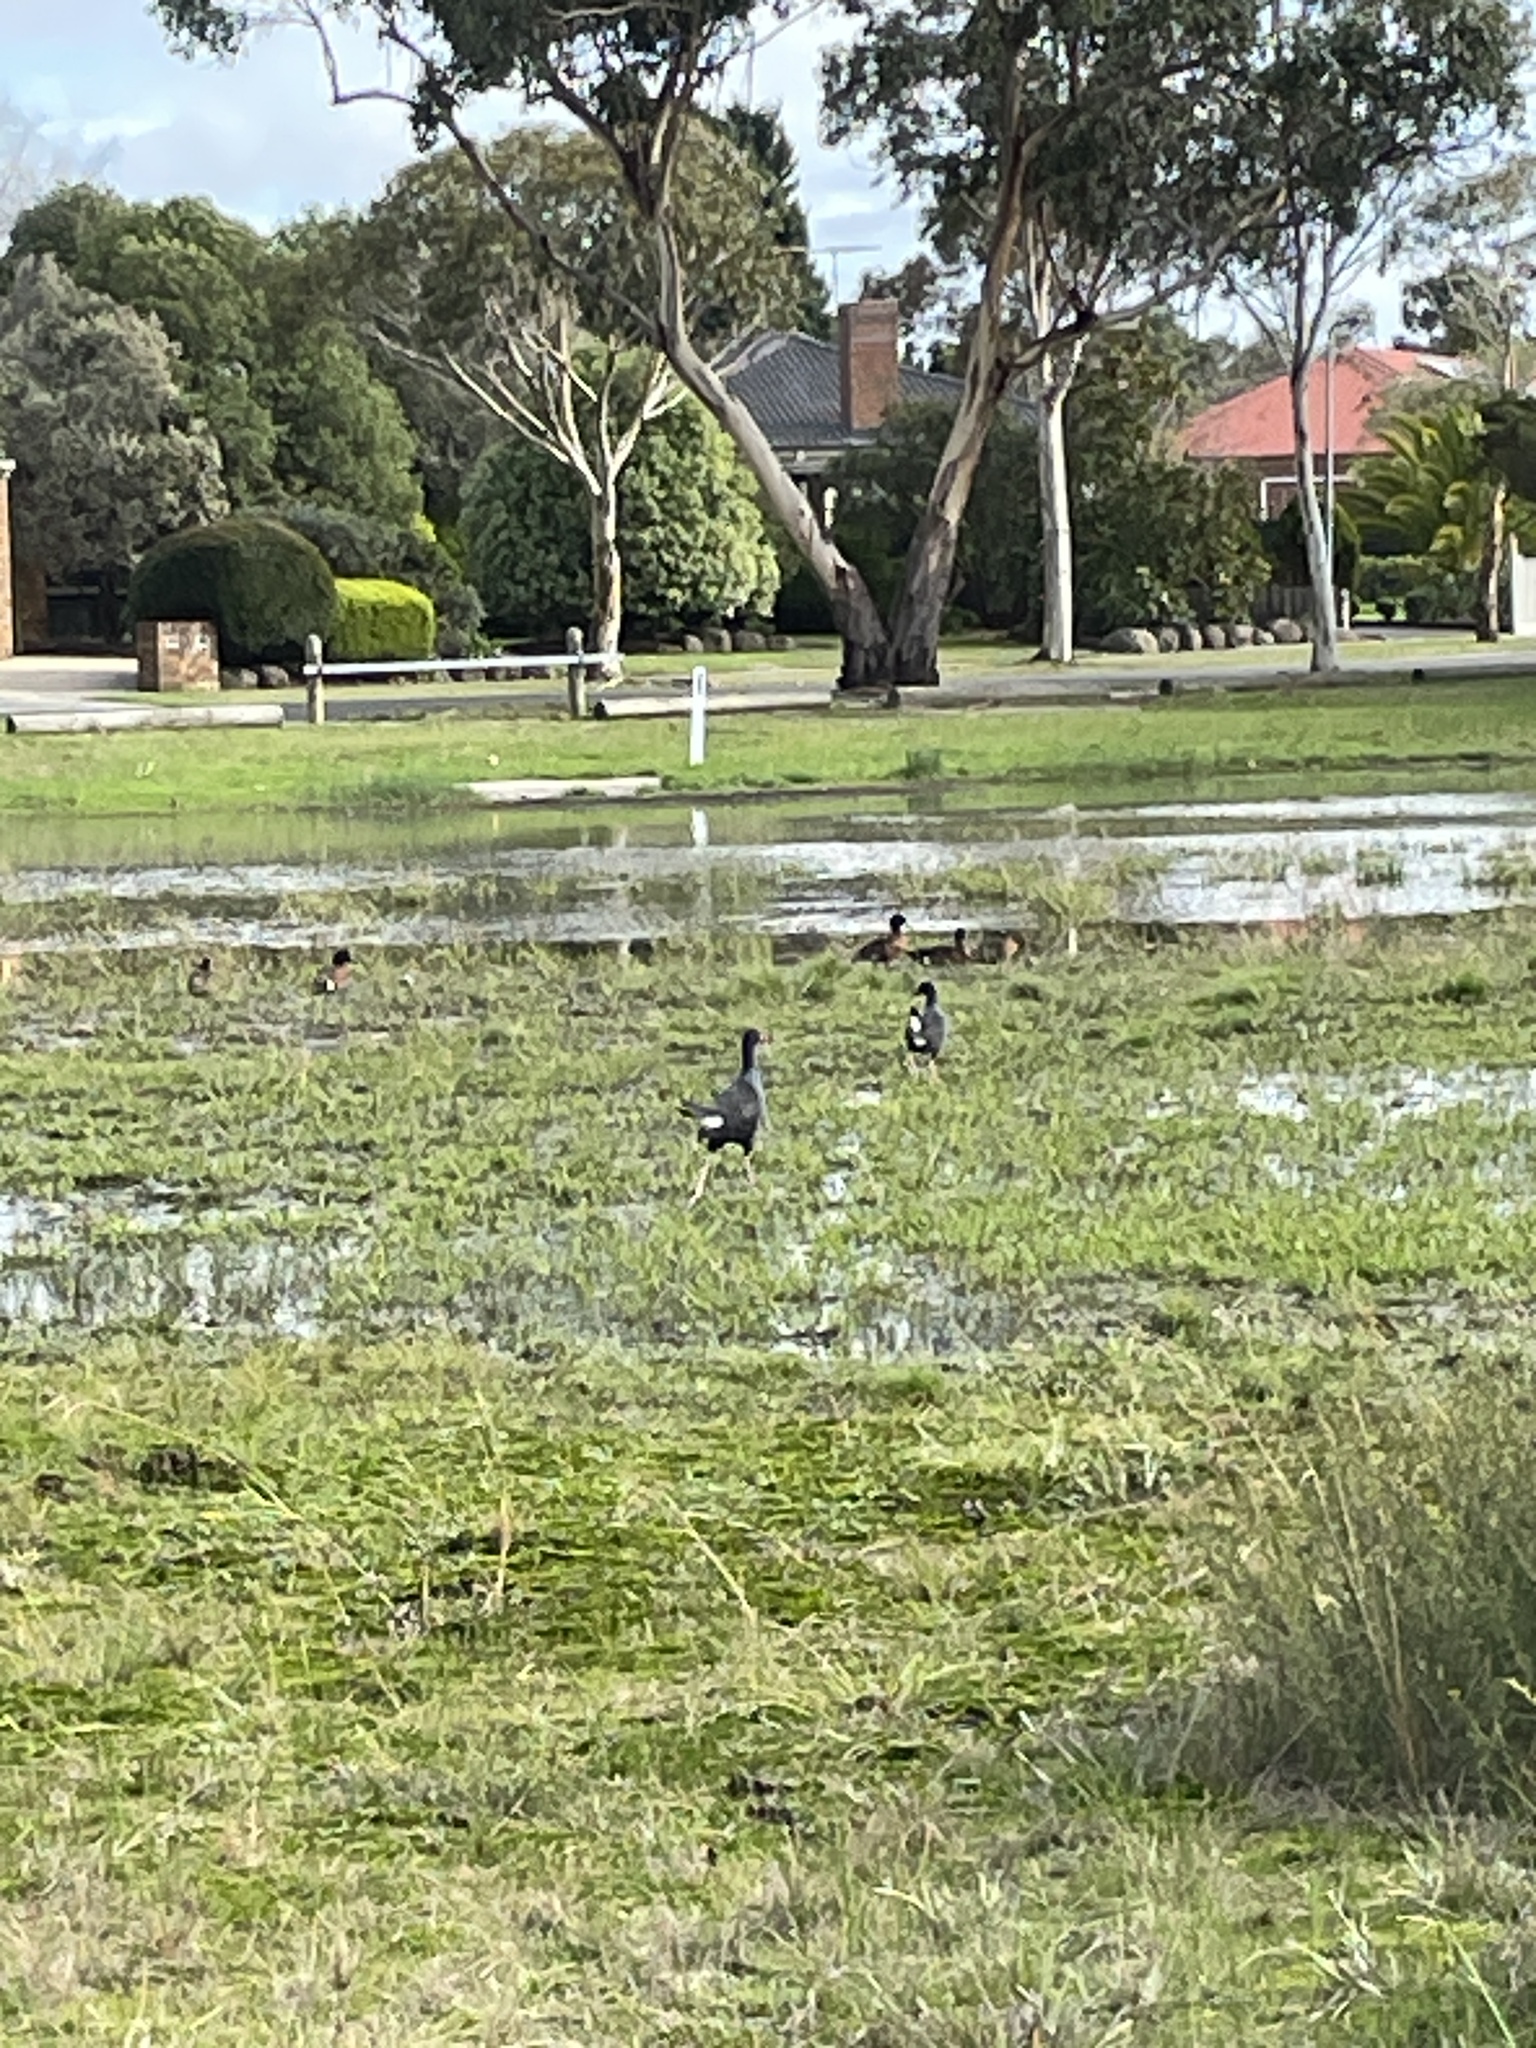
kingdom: Animalia
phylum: Chordata
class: Aves
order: Anseriformes
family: Anatidae
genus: Anas
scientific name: Anas castanea
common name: Chestnut teal
